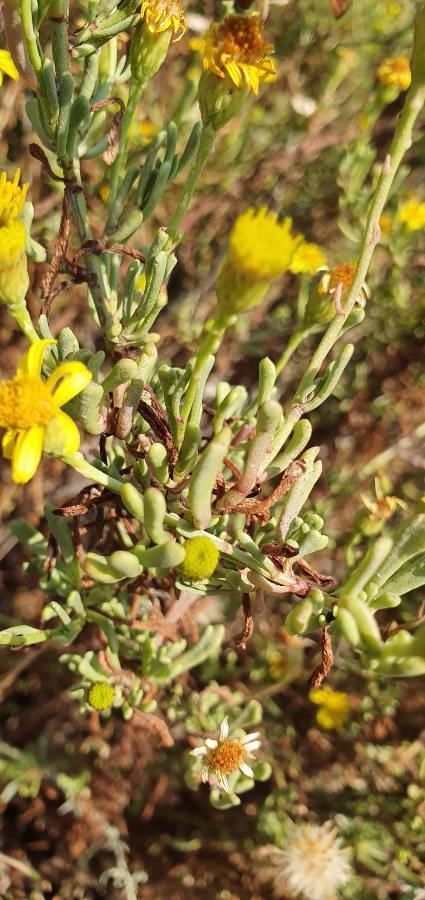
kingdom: Plantae
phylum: Tracheophyta
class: Magnoliopsida
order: Asterales
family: Asteraceae
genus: Limbarda
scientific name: Limbarda crithmoides
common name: Golden samphire
